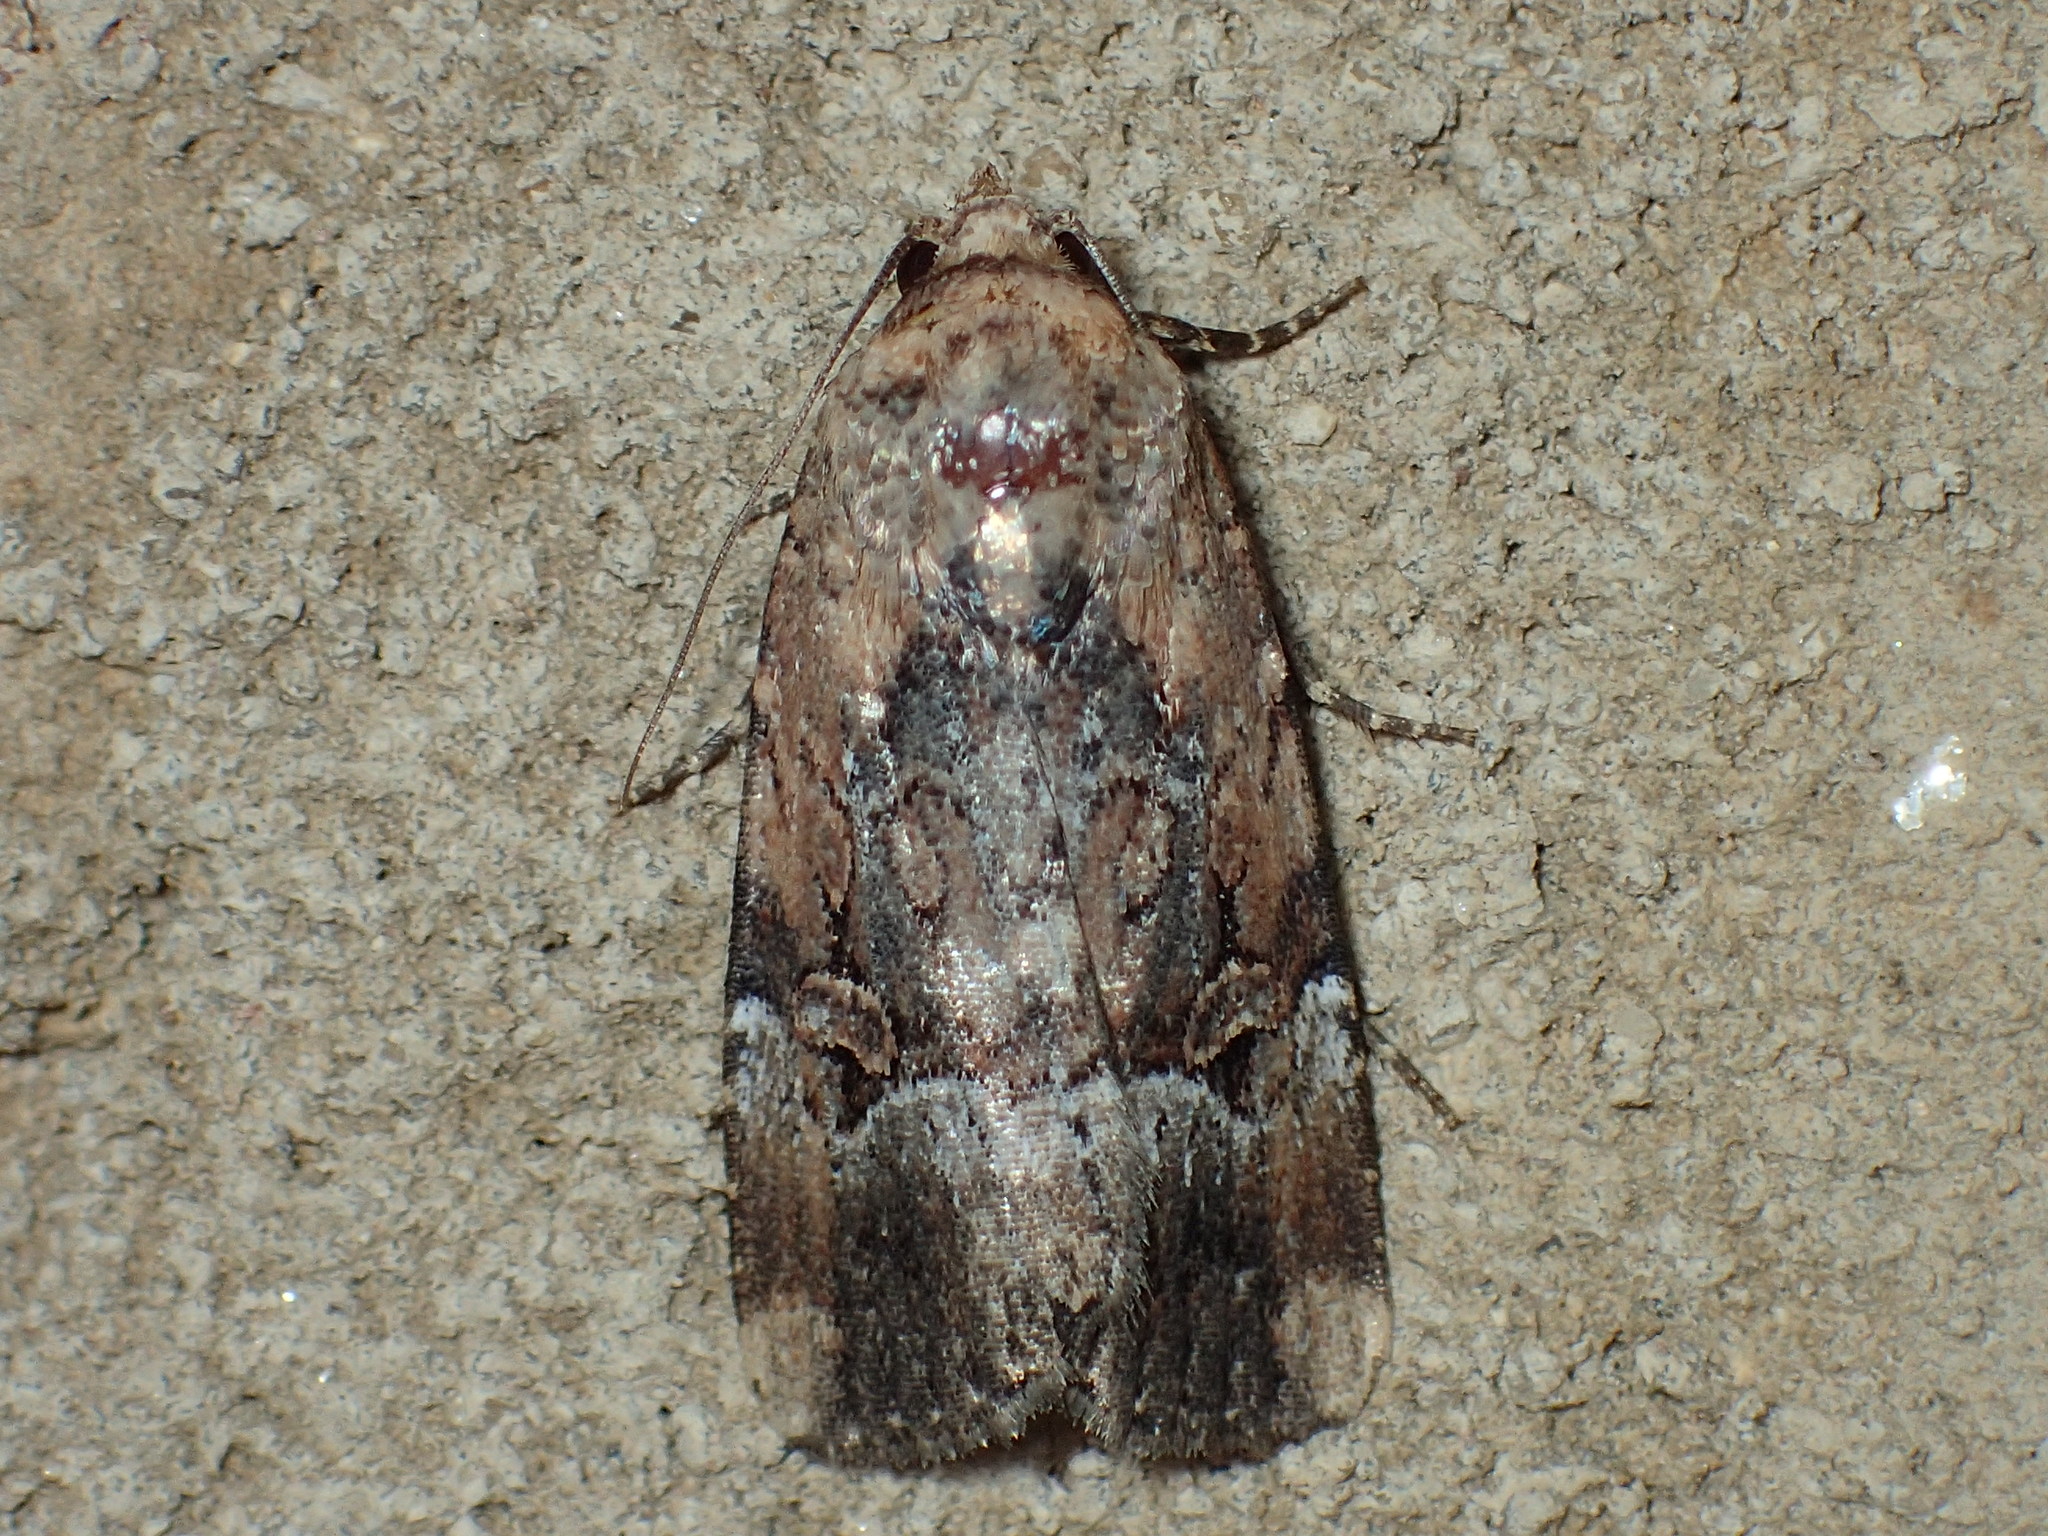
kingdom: Animalia
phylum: Arthropoda
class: Insecta
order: Lepidoptera
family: Noctuidae
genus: Elaphria
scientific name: Elaphria chalcedonia
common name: Chalcedony midget
